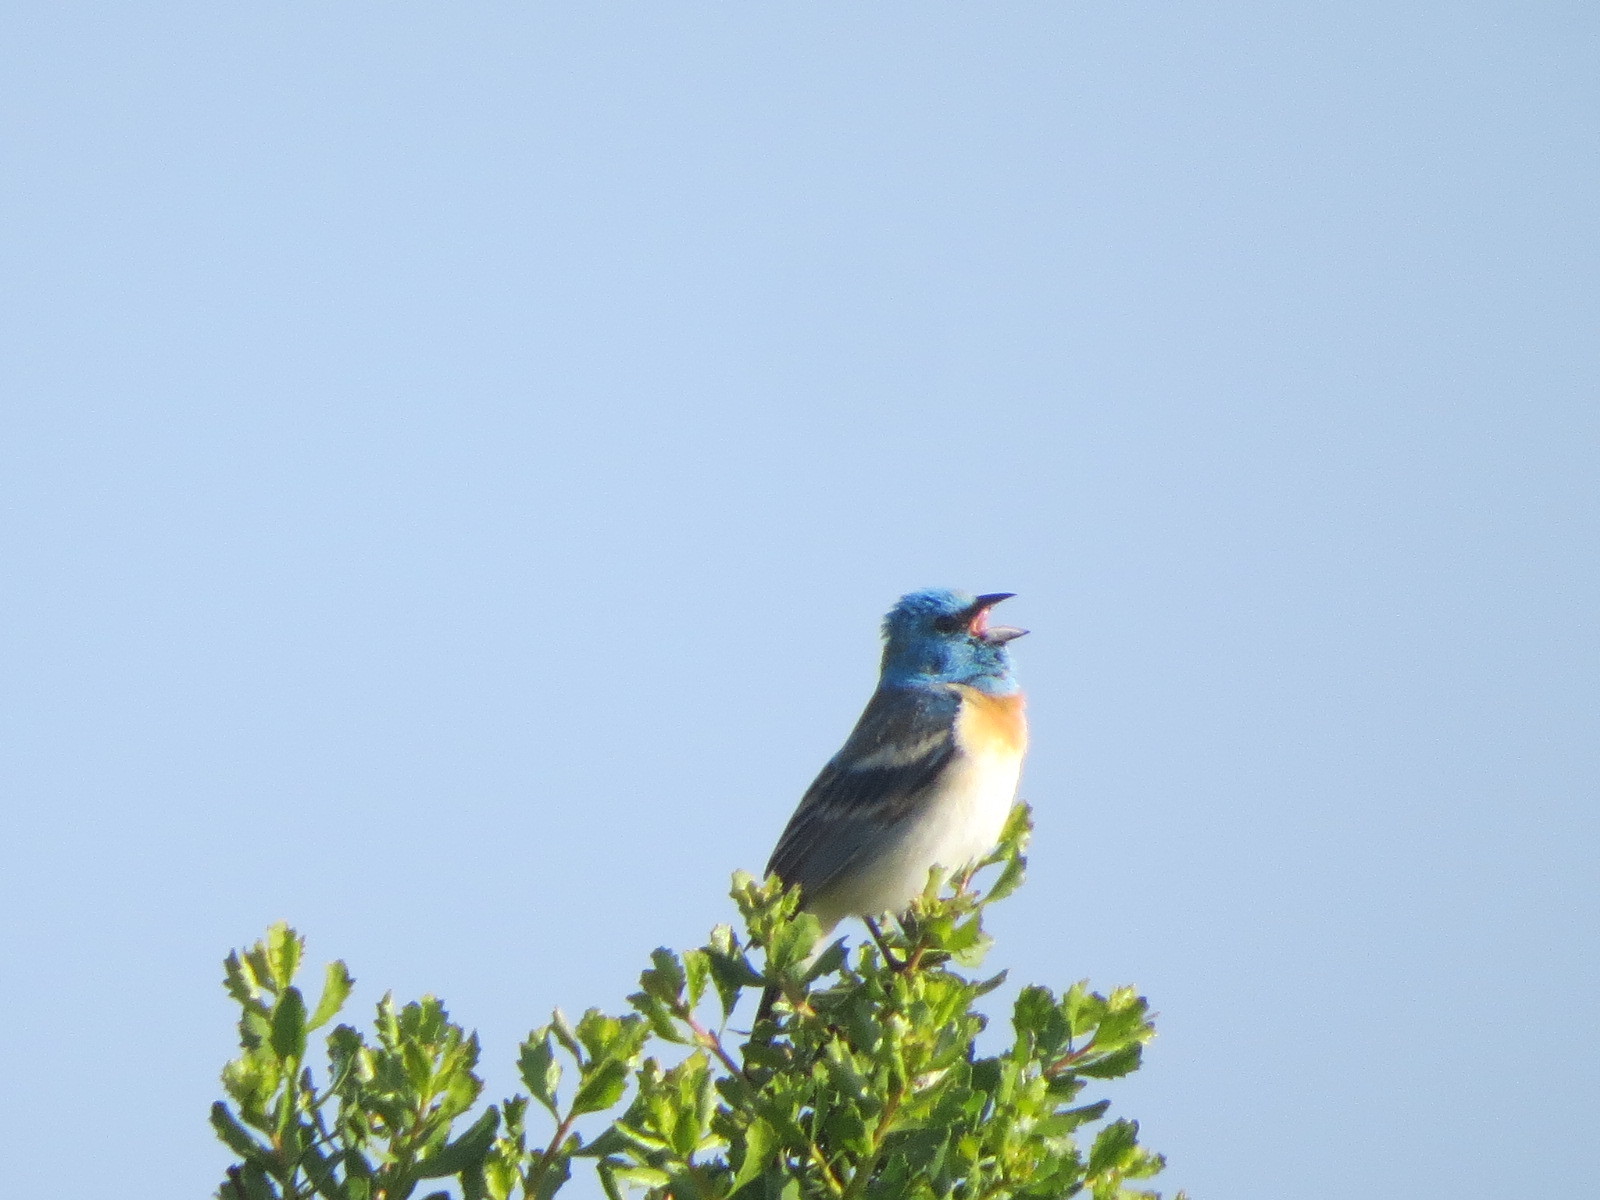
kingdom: Animalia
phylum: Chordata
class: Aves
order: Passeriformes
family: Cardinalidae
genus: Passerina
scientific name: Passerina amoena
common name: Lazuli bunting
